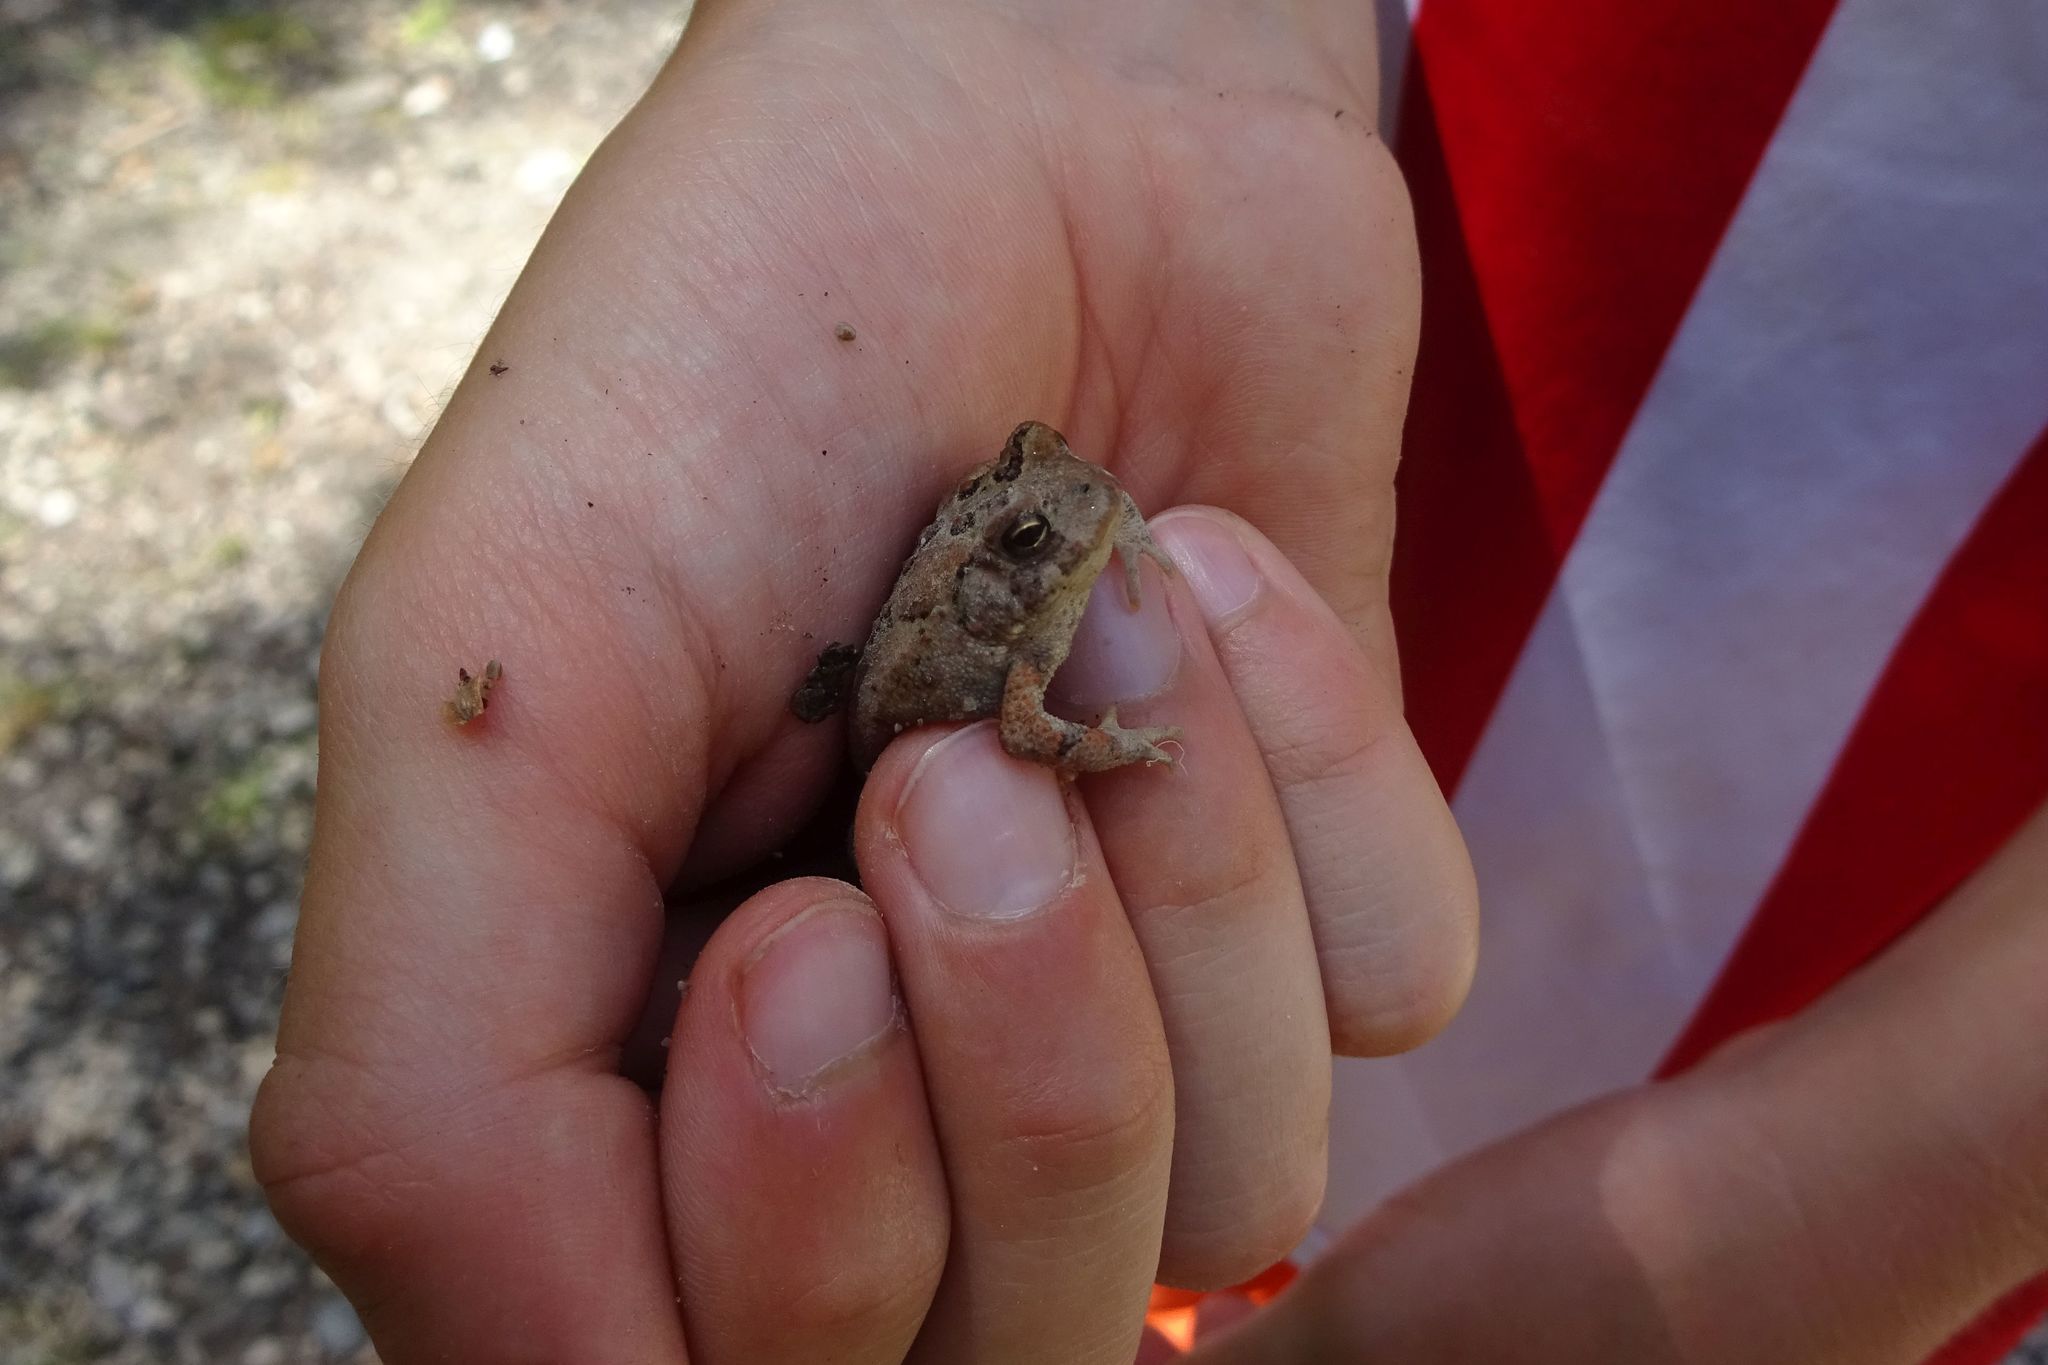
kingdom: Animalia
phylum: Chordata
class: Amphibia
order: Anura
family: Bufonidae
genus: Anaxyrus
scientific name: Anaxyrus americanus
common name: American toad
